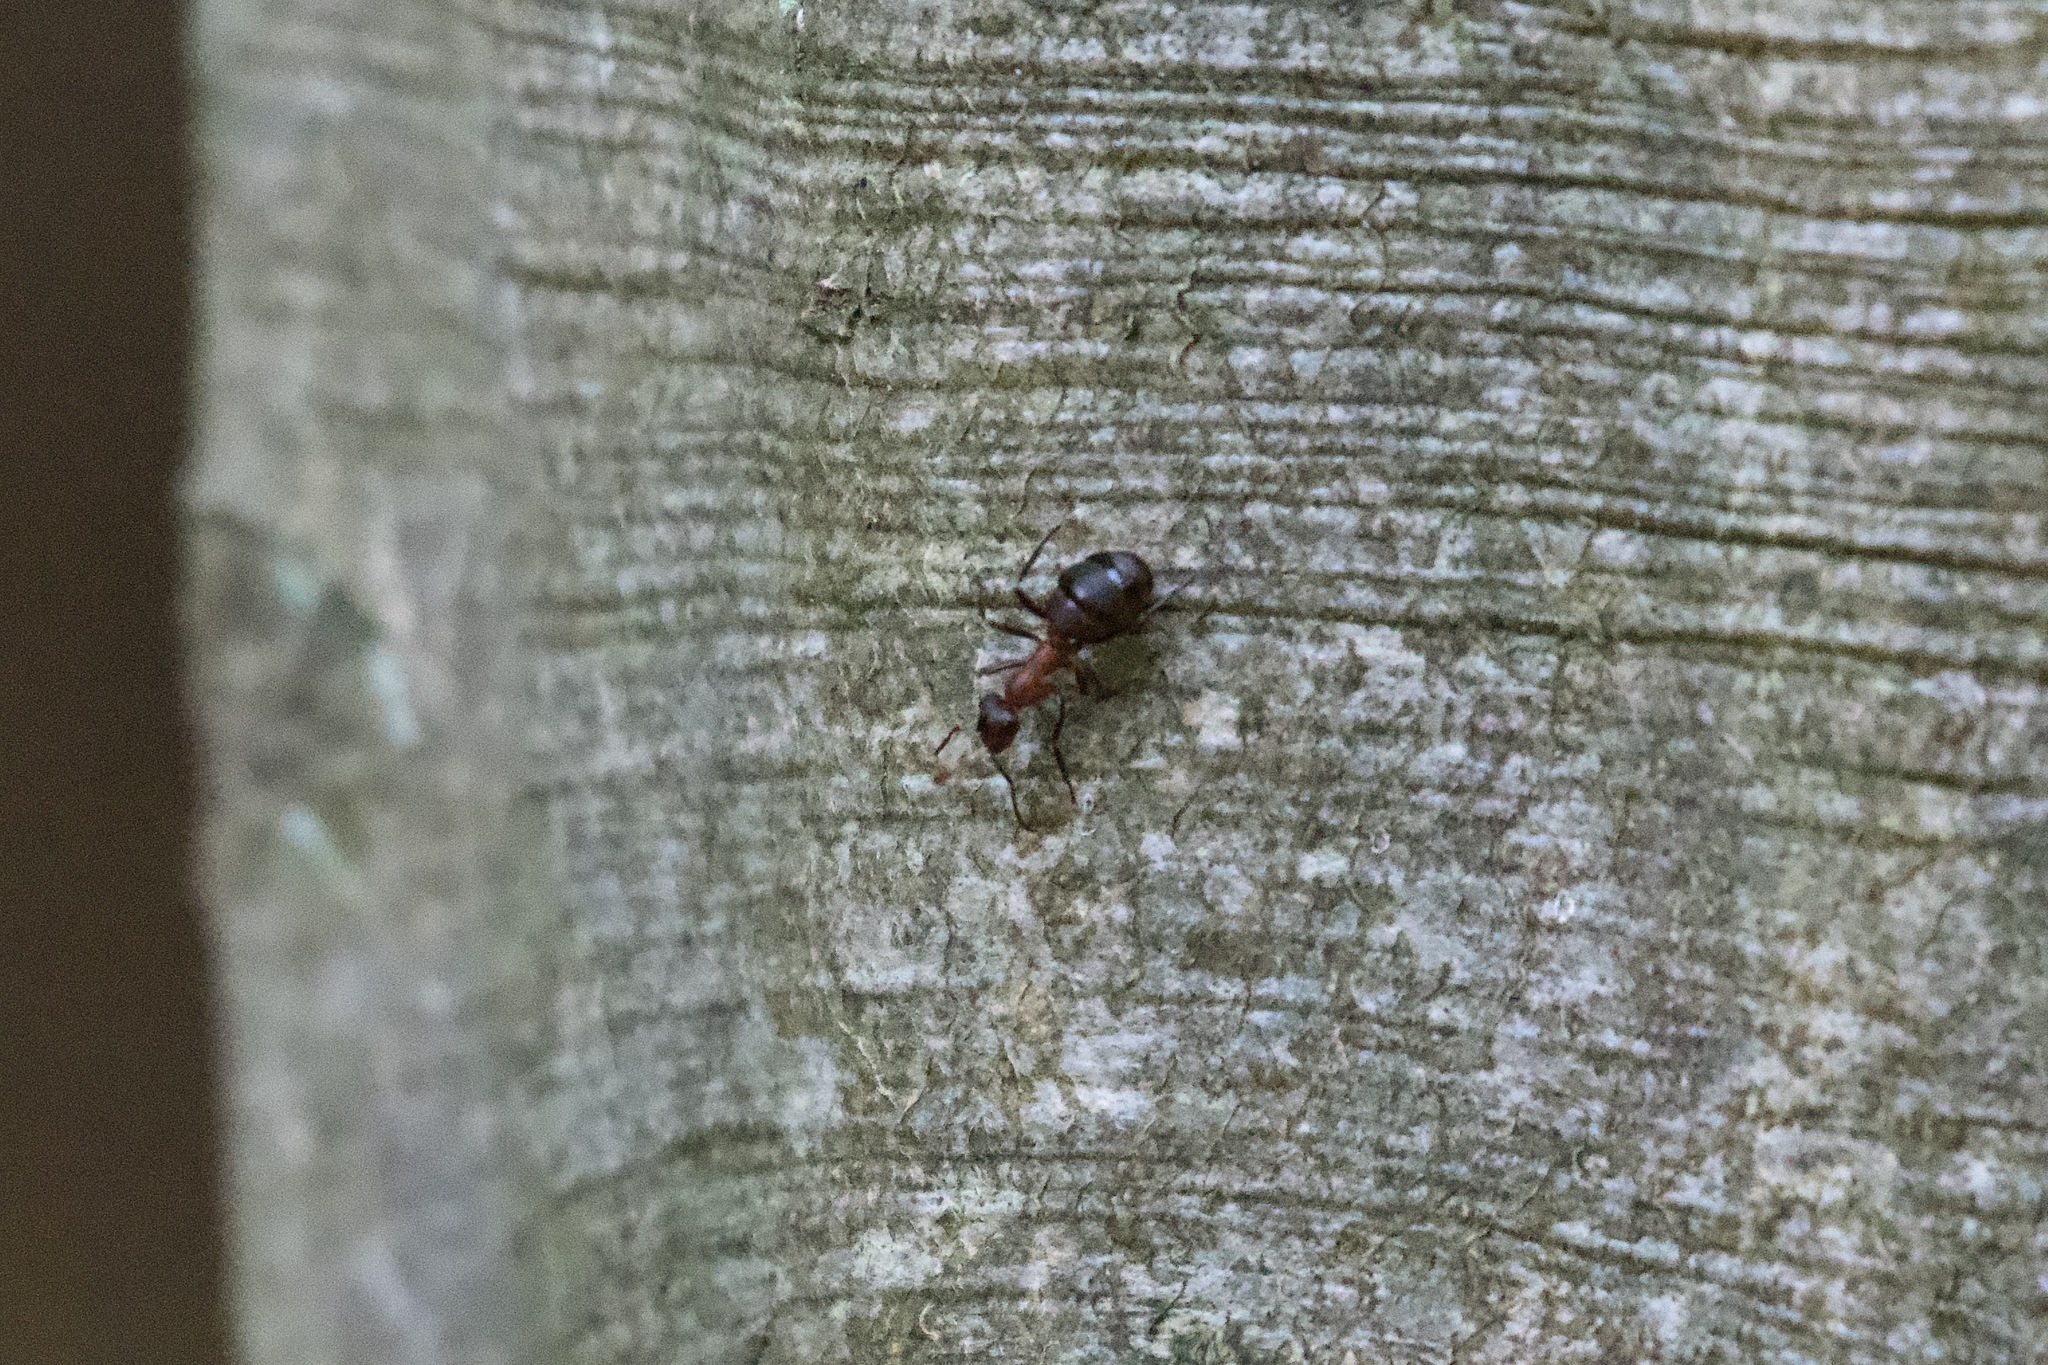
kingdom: Animalia
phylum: Arthropoda
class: Insecta
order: Hymenoptera
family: Formicidae
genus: Lasius
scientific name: Lasius emarginatus
